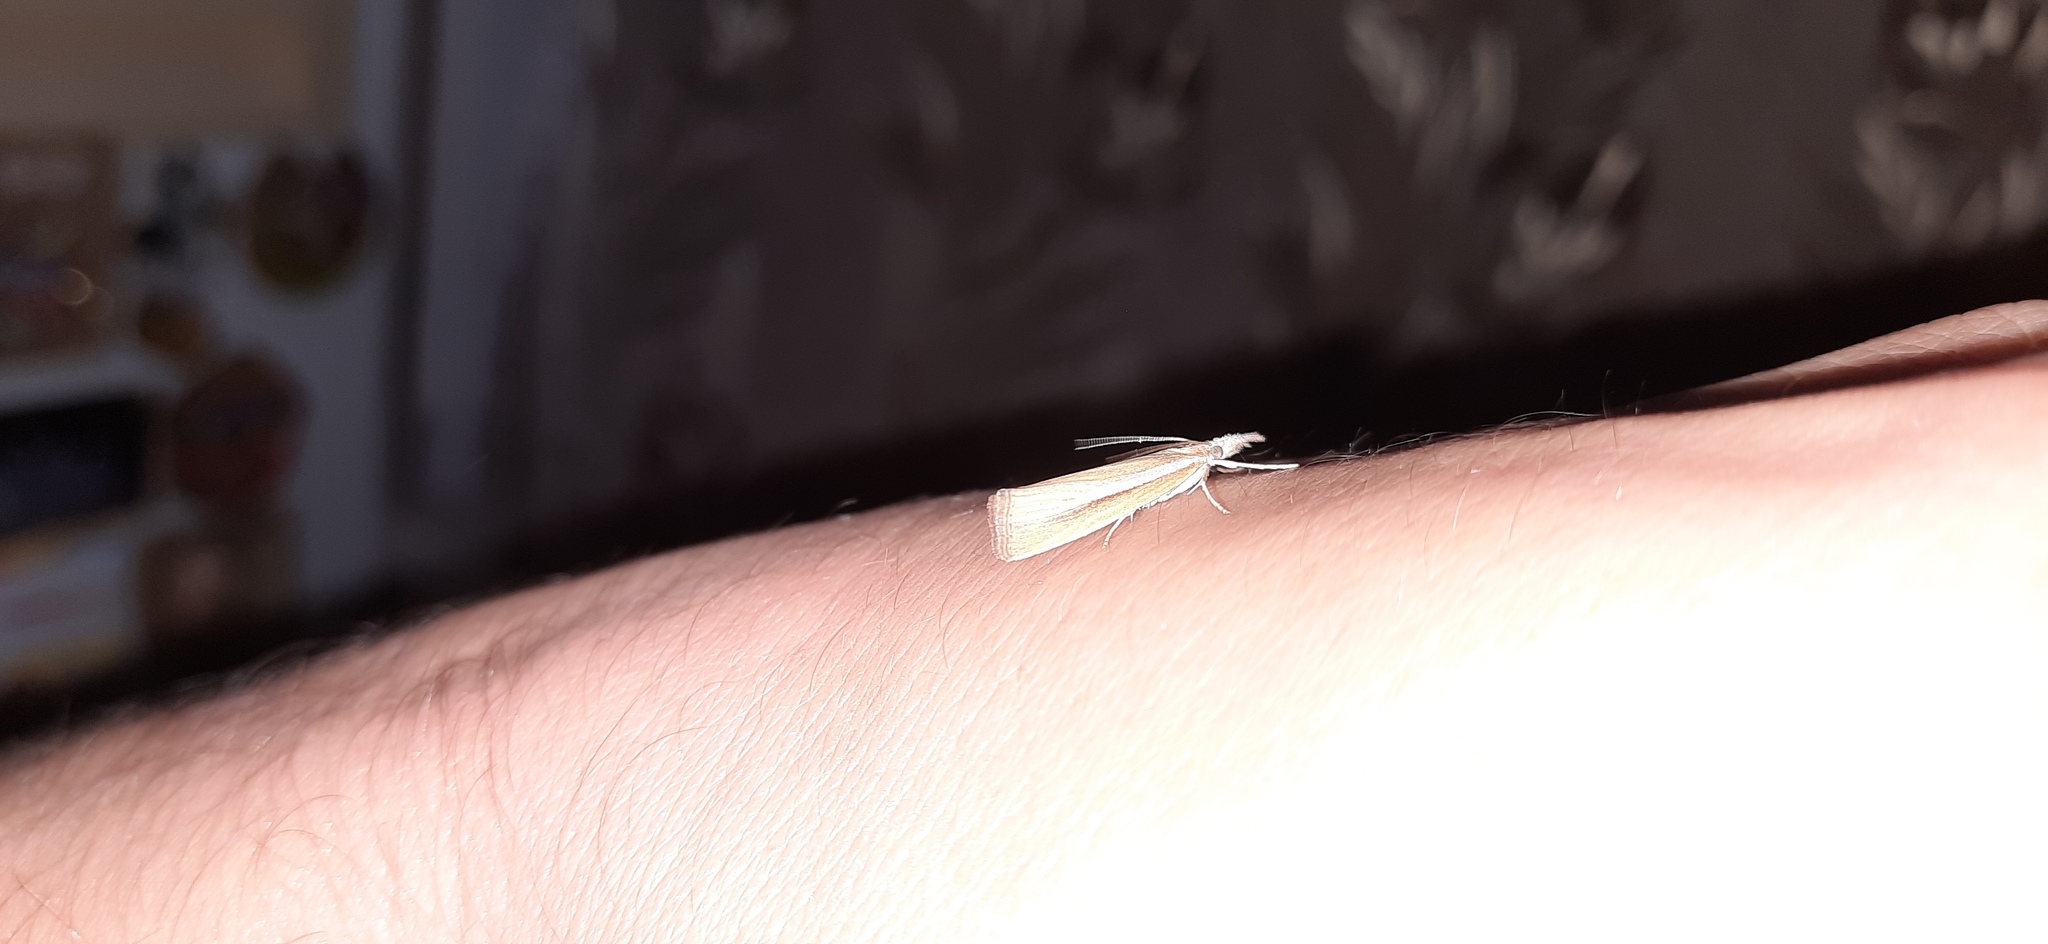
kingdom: Animalia
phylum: Arthropoda
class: Insecta
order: Lepidoptera
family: Crambidae
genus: Agriphila
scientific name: Agriphila selasella
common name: Pale-streak grass-veneer
